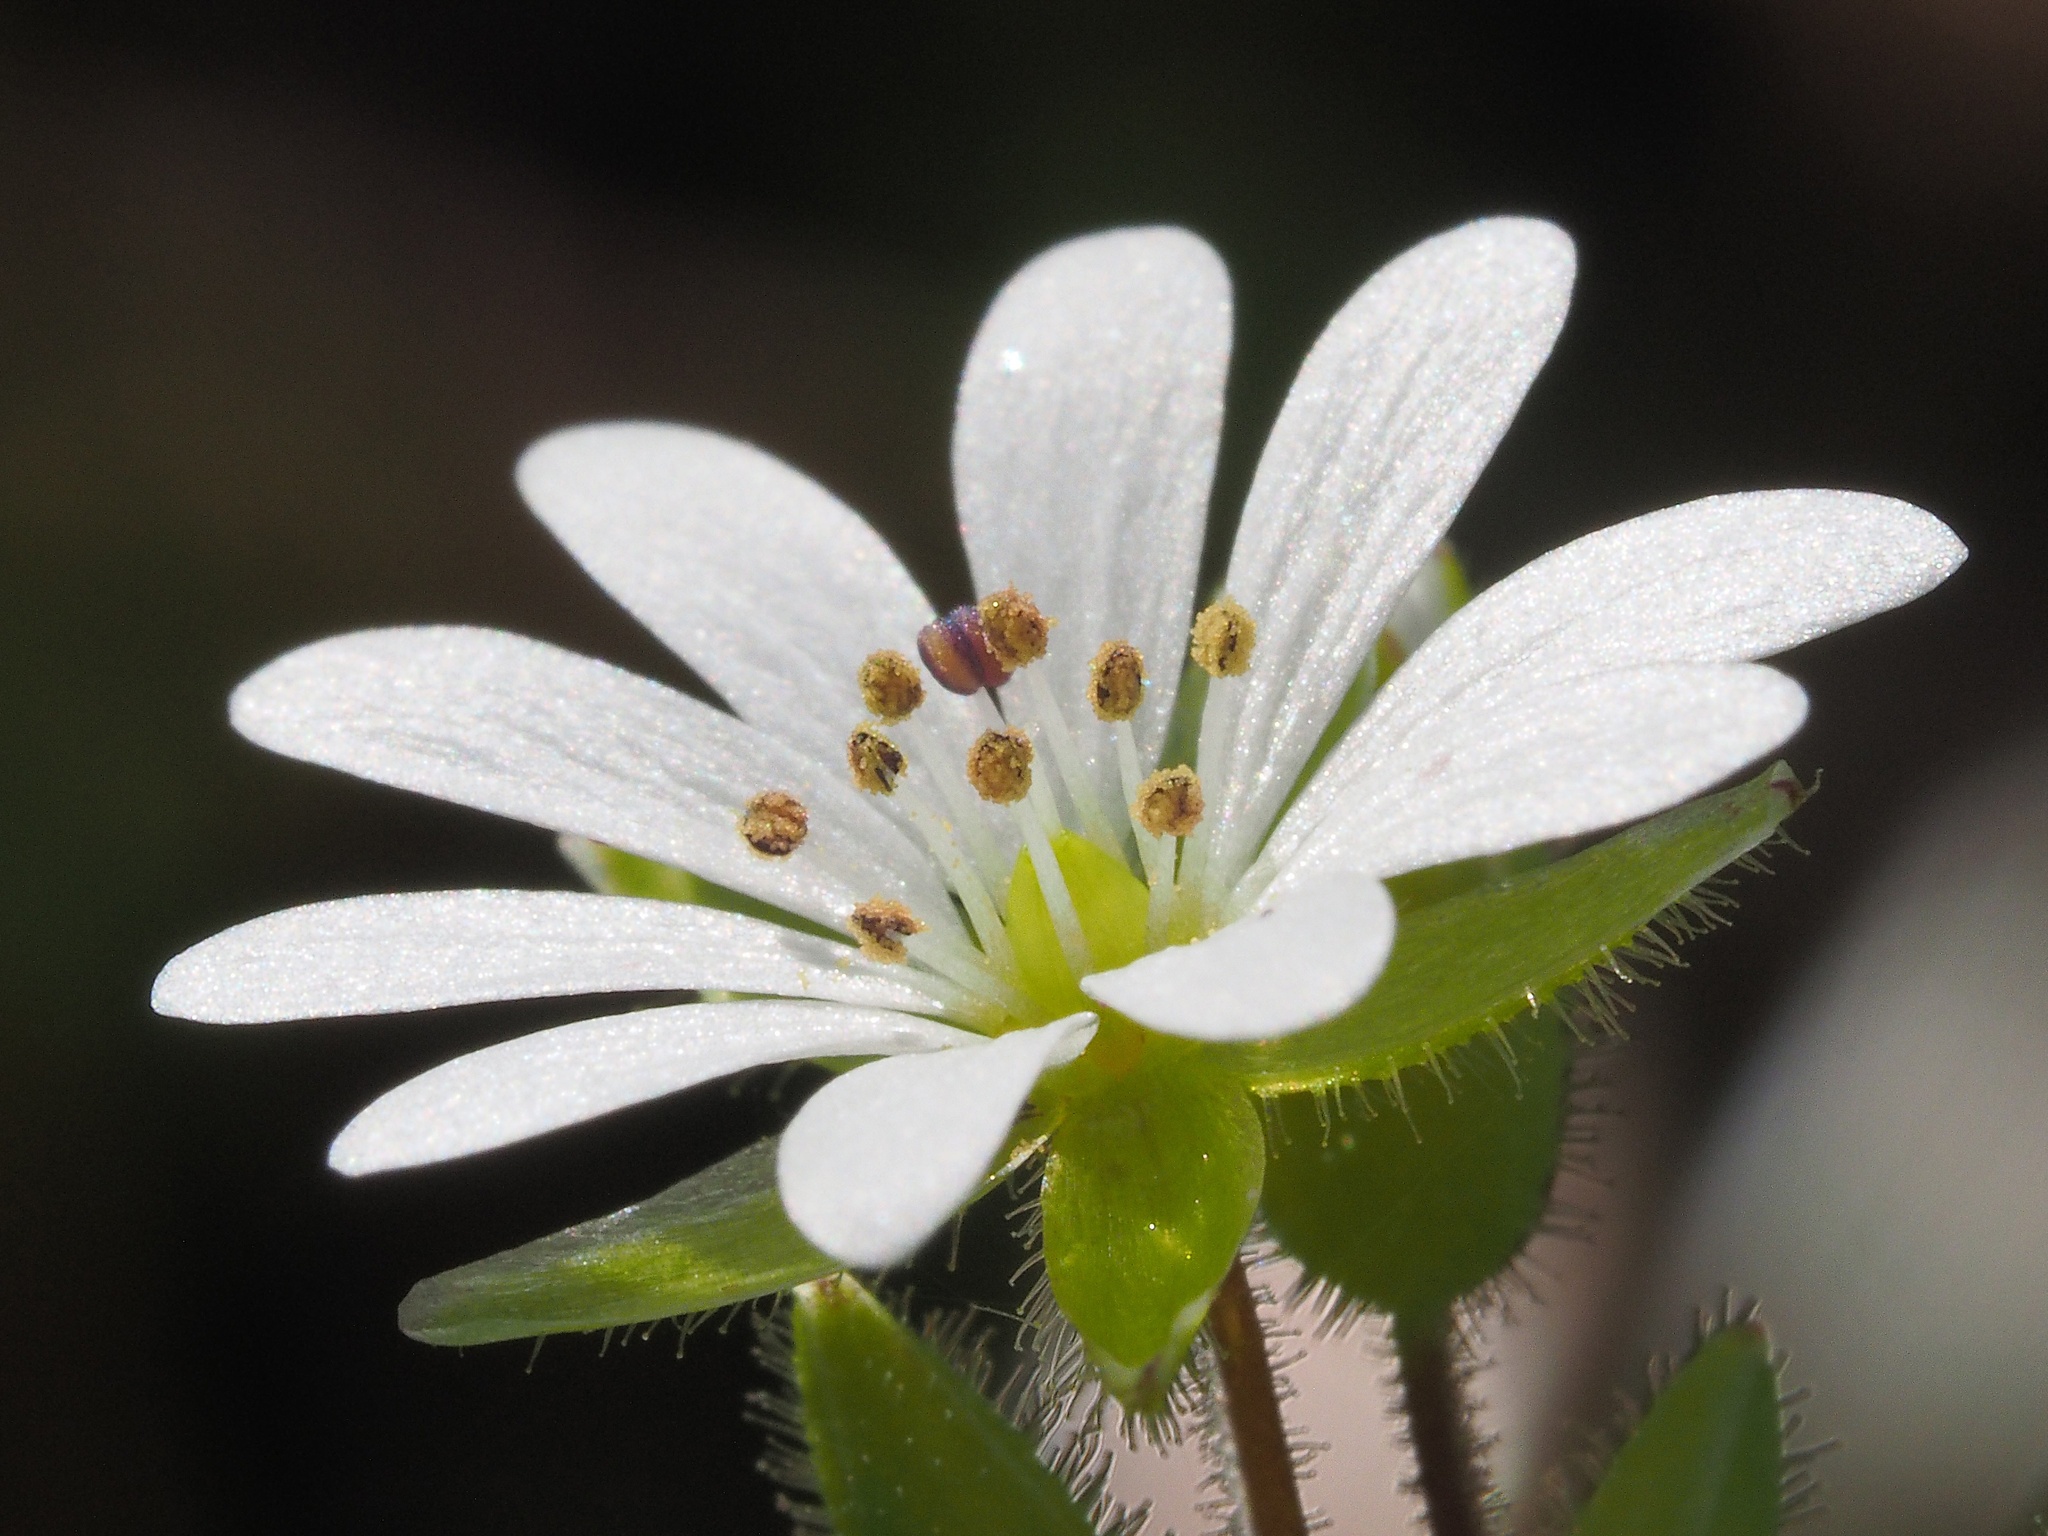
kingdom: Plantae
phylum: Tracheophyta
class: Magnoliopsida
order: Caryophyllales
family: Caryophyllaceae
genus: Stellaria
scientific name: Stellaria neglecta
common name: Greater chickweed
